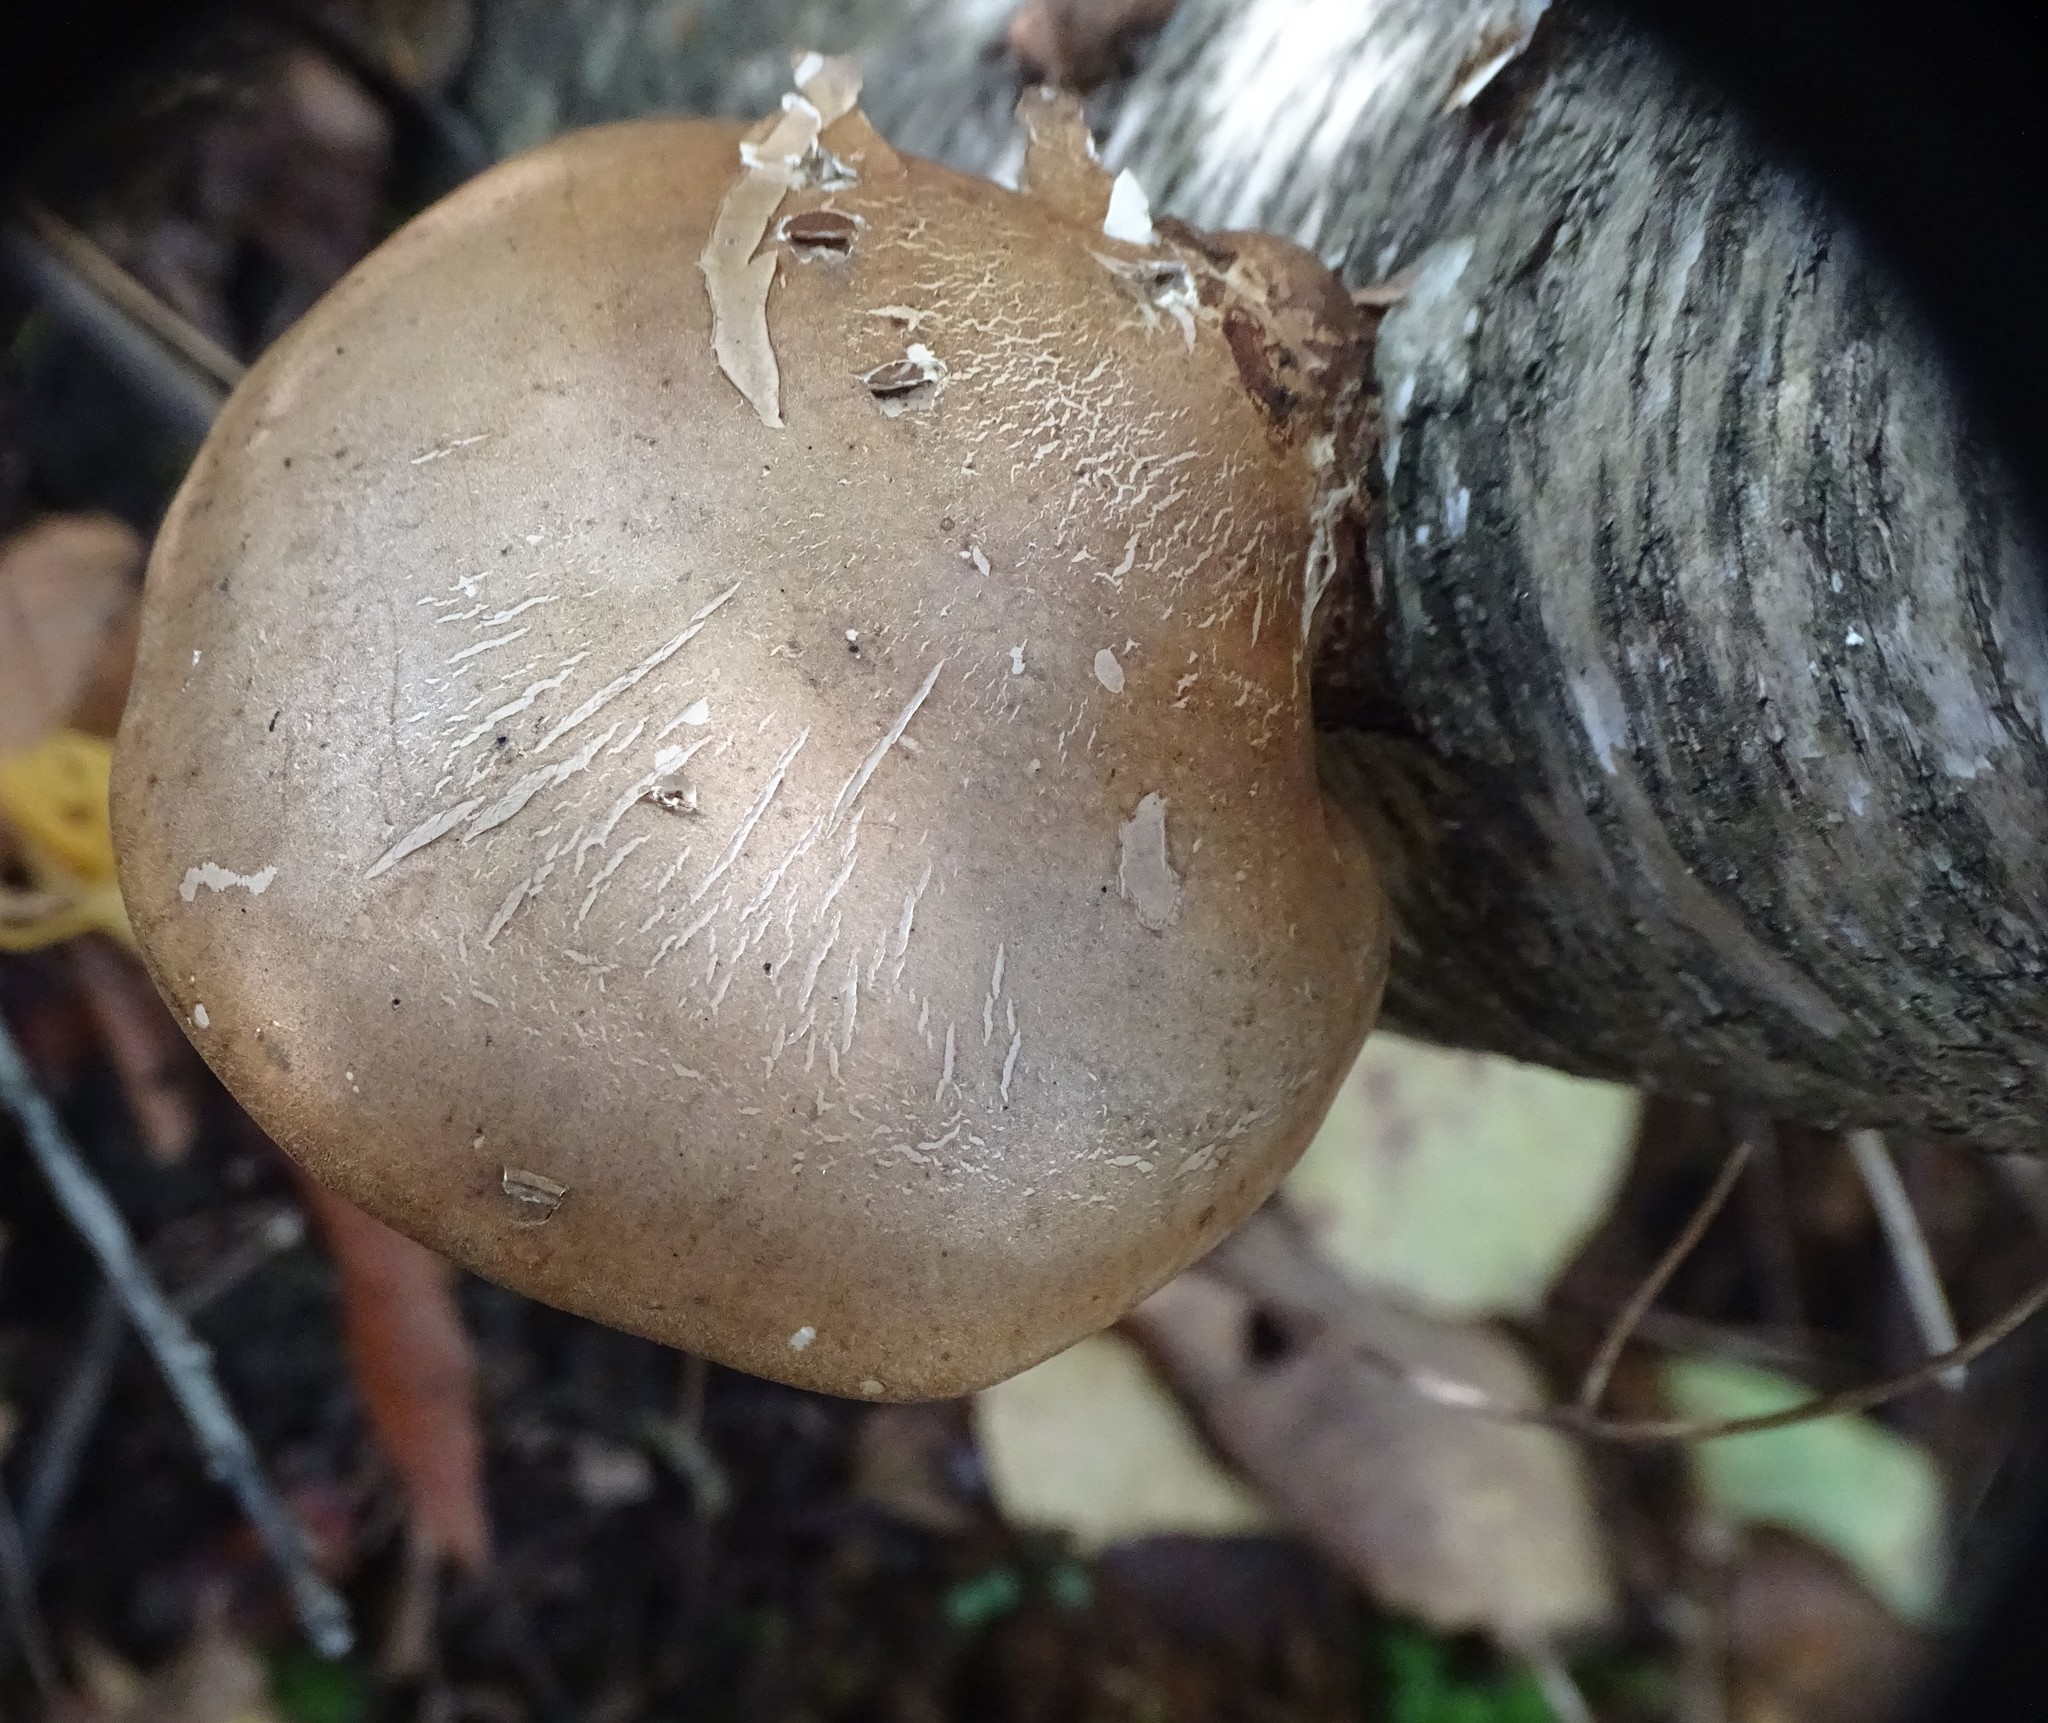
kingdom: Fungi
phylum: Basidiomycota
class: Agaricomycetes
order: Polyporales
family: Fomitopsidaceae
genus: Fomitopsis
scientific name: Fomitopsis betulina
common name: Birch polypore
